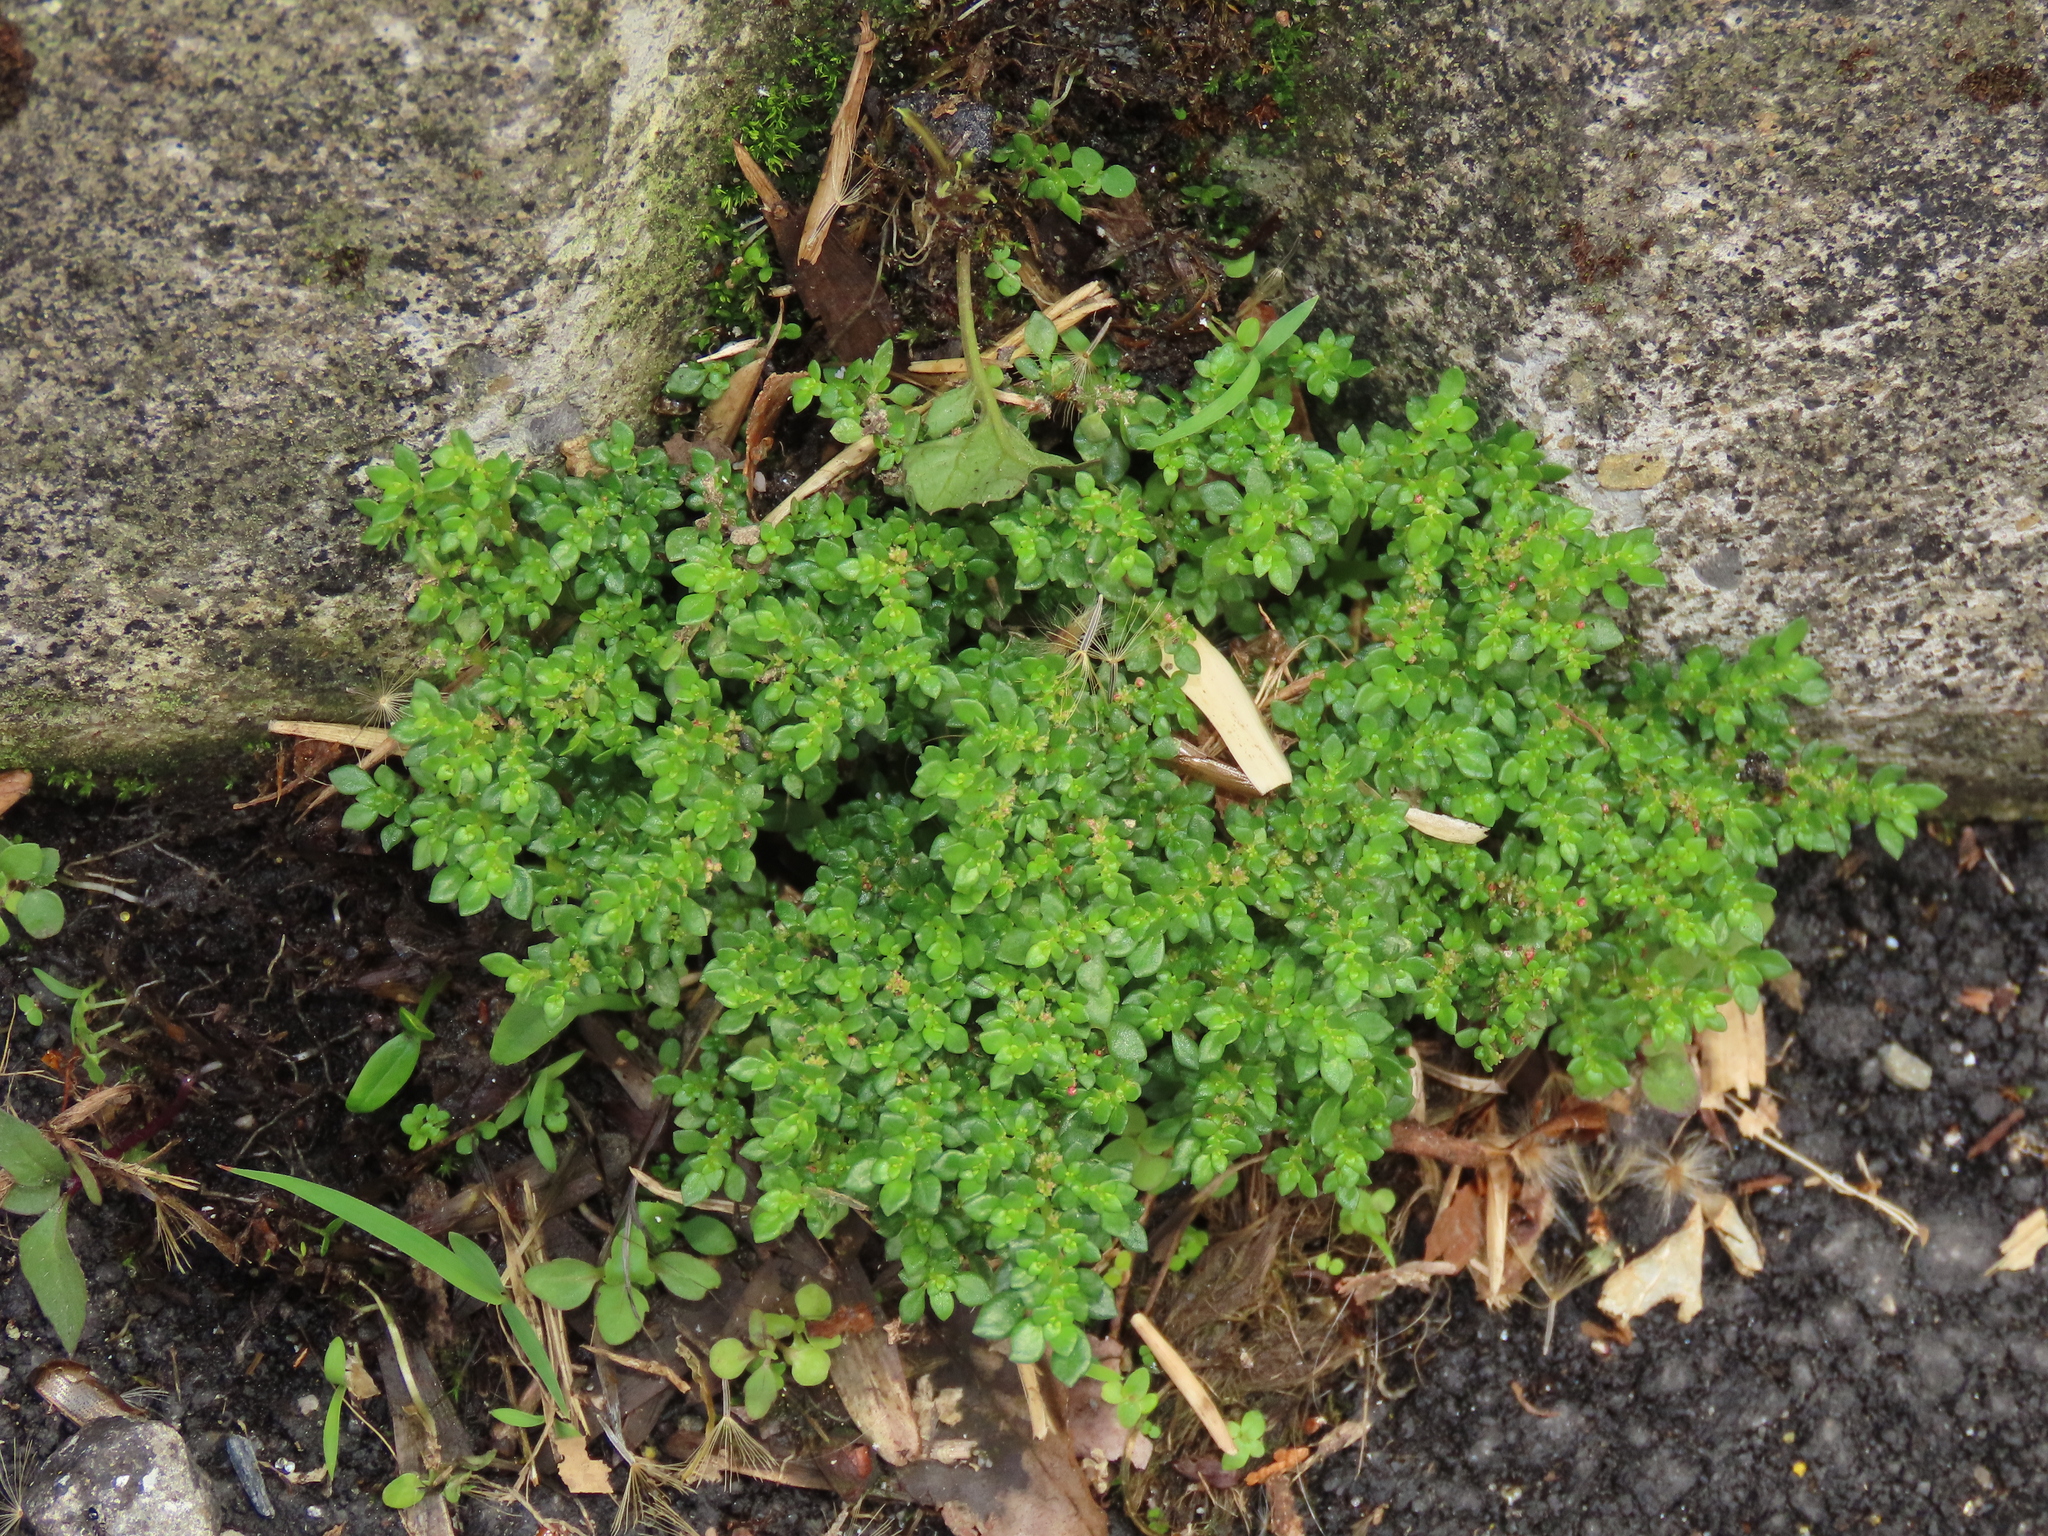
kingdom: Plantae
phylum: Tracheophyta
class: Magnoliopsida
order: Rosales
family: Urticaceae
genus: Pilea
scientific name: Pilea microphylla
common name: Artillery-plant
